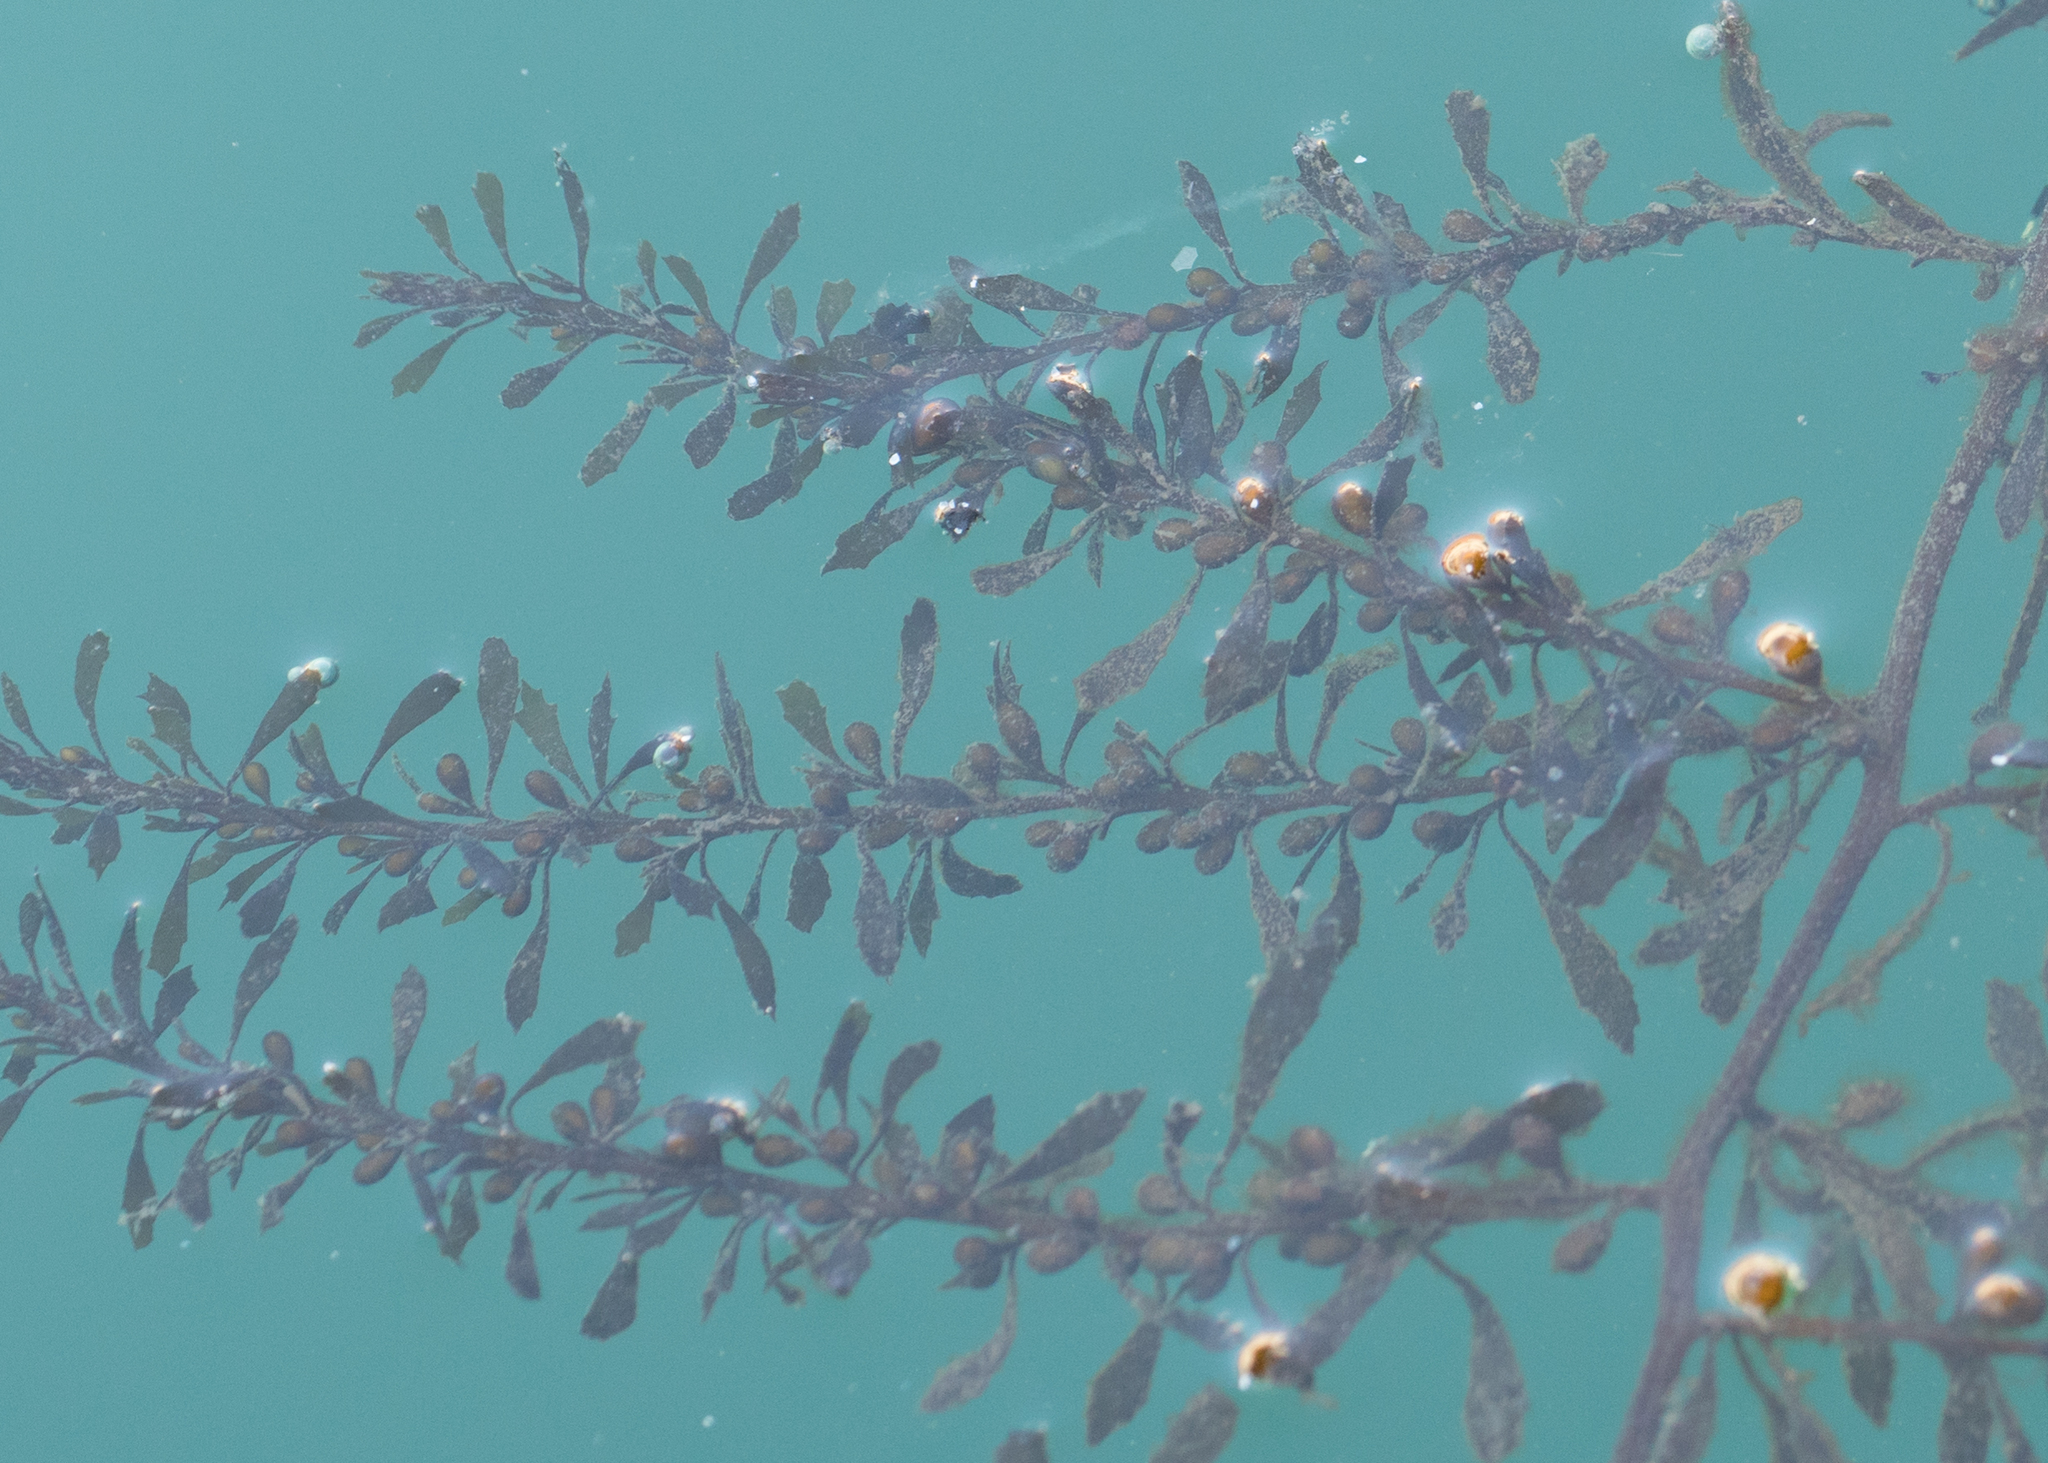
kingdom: Chromista
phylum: Ochrophyta
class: Phaeophyceae
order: Fucales
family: Sargassaceae
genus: Sargassum
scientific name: Sargassum muticum
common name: Japweed
